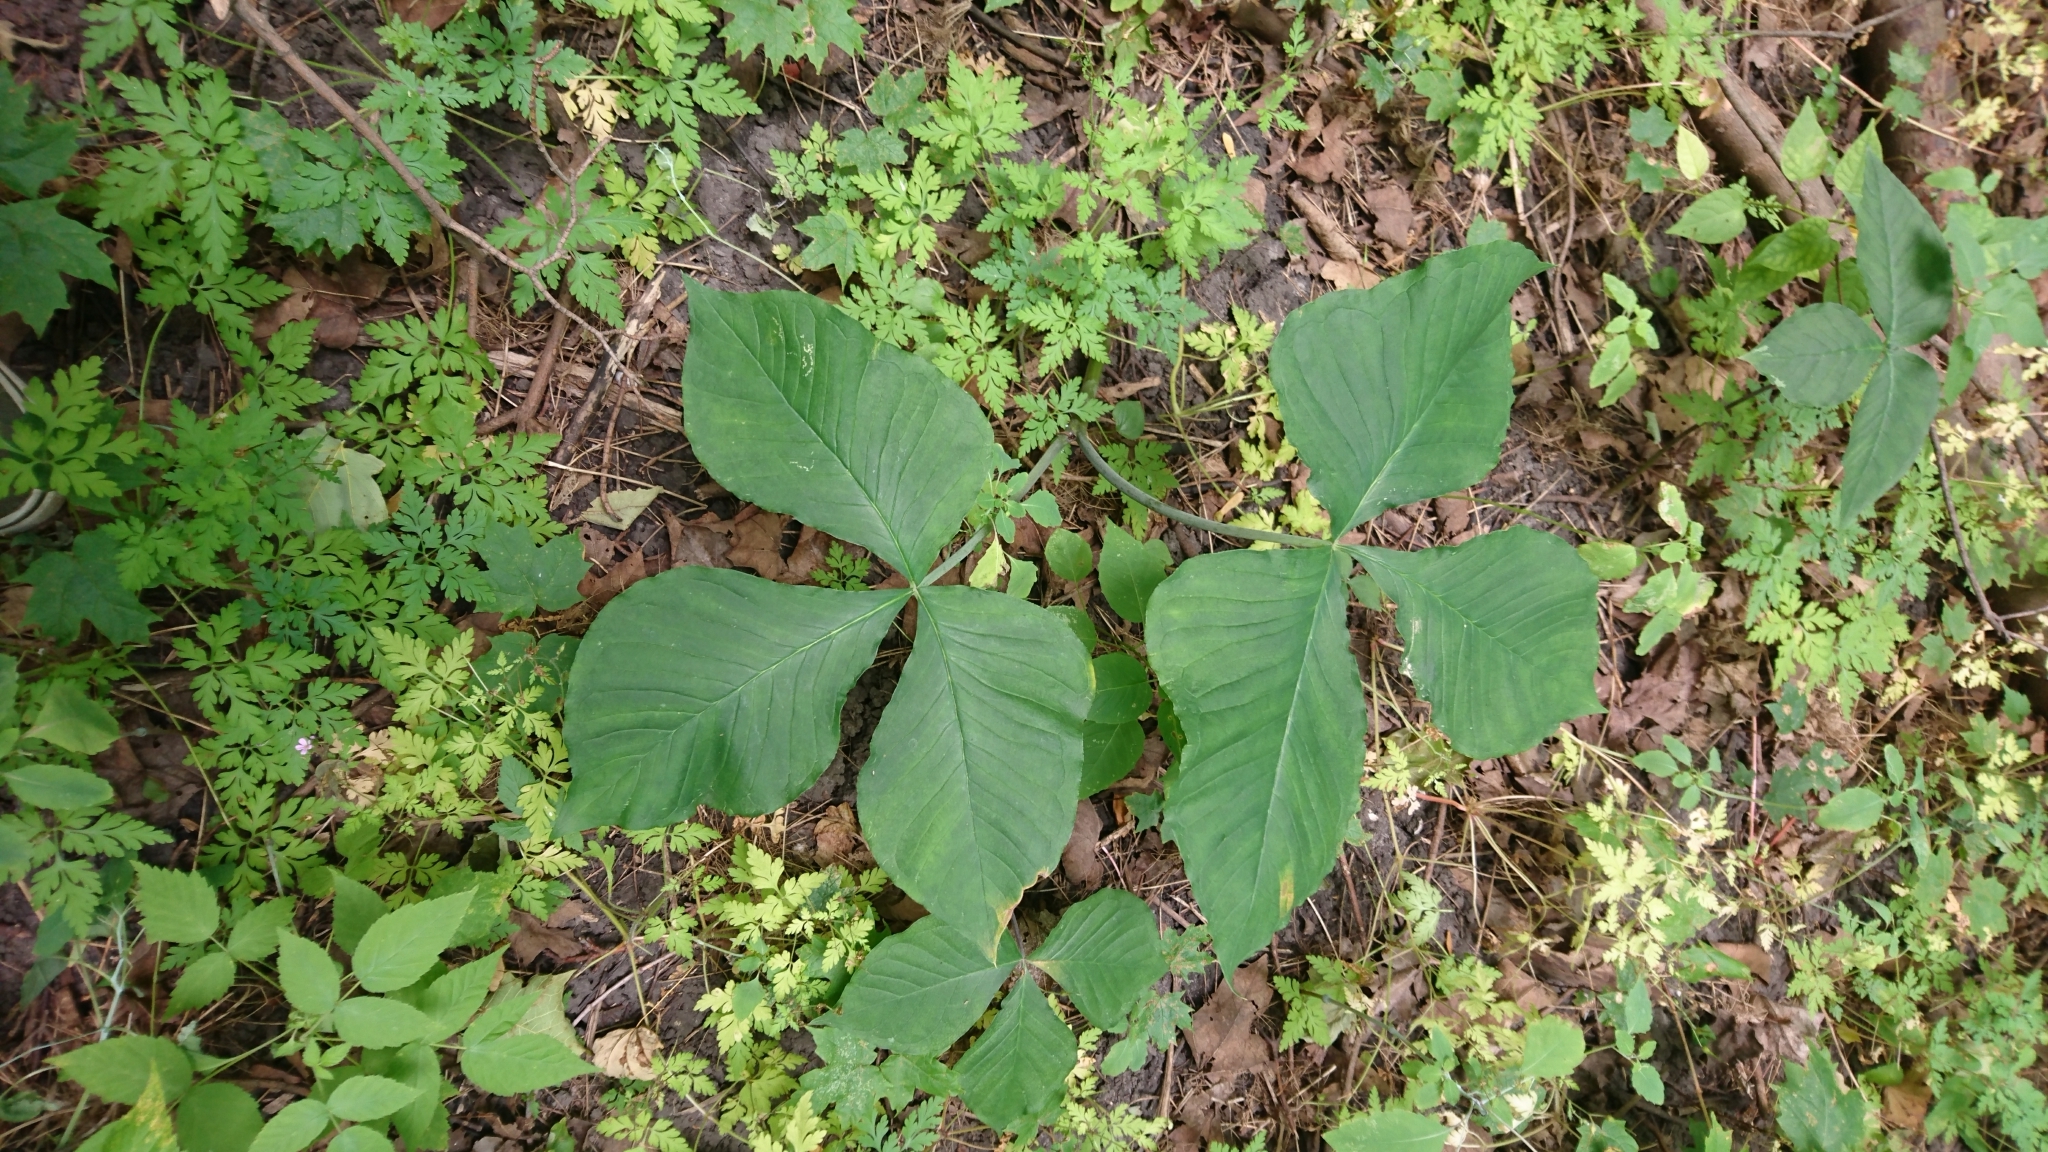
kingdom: Plantae
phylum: Tracheophyta
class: Liliopsida
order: Alismatales
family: Araceae
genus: Arisaema
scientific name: Arisaema triphyllum
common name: Jack-in-the-pulpit
